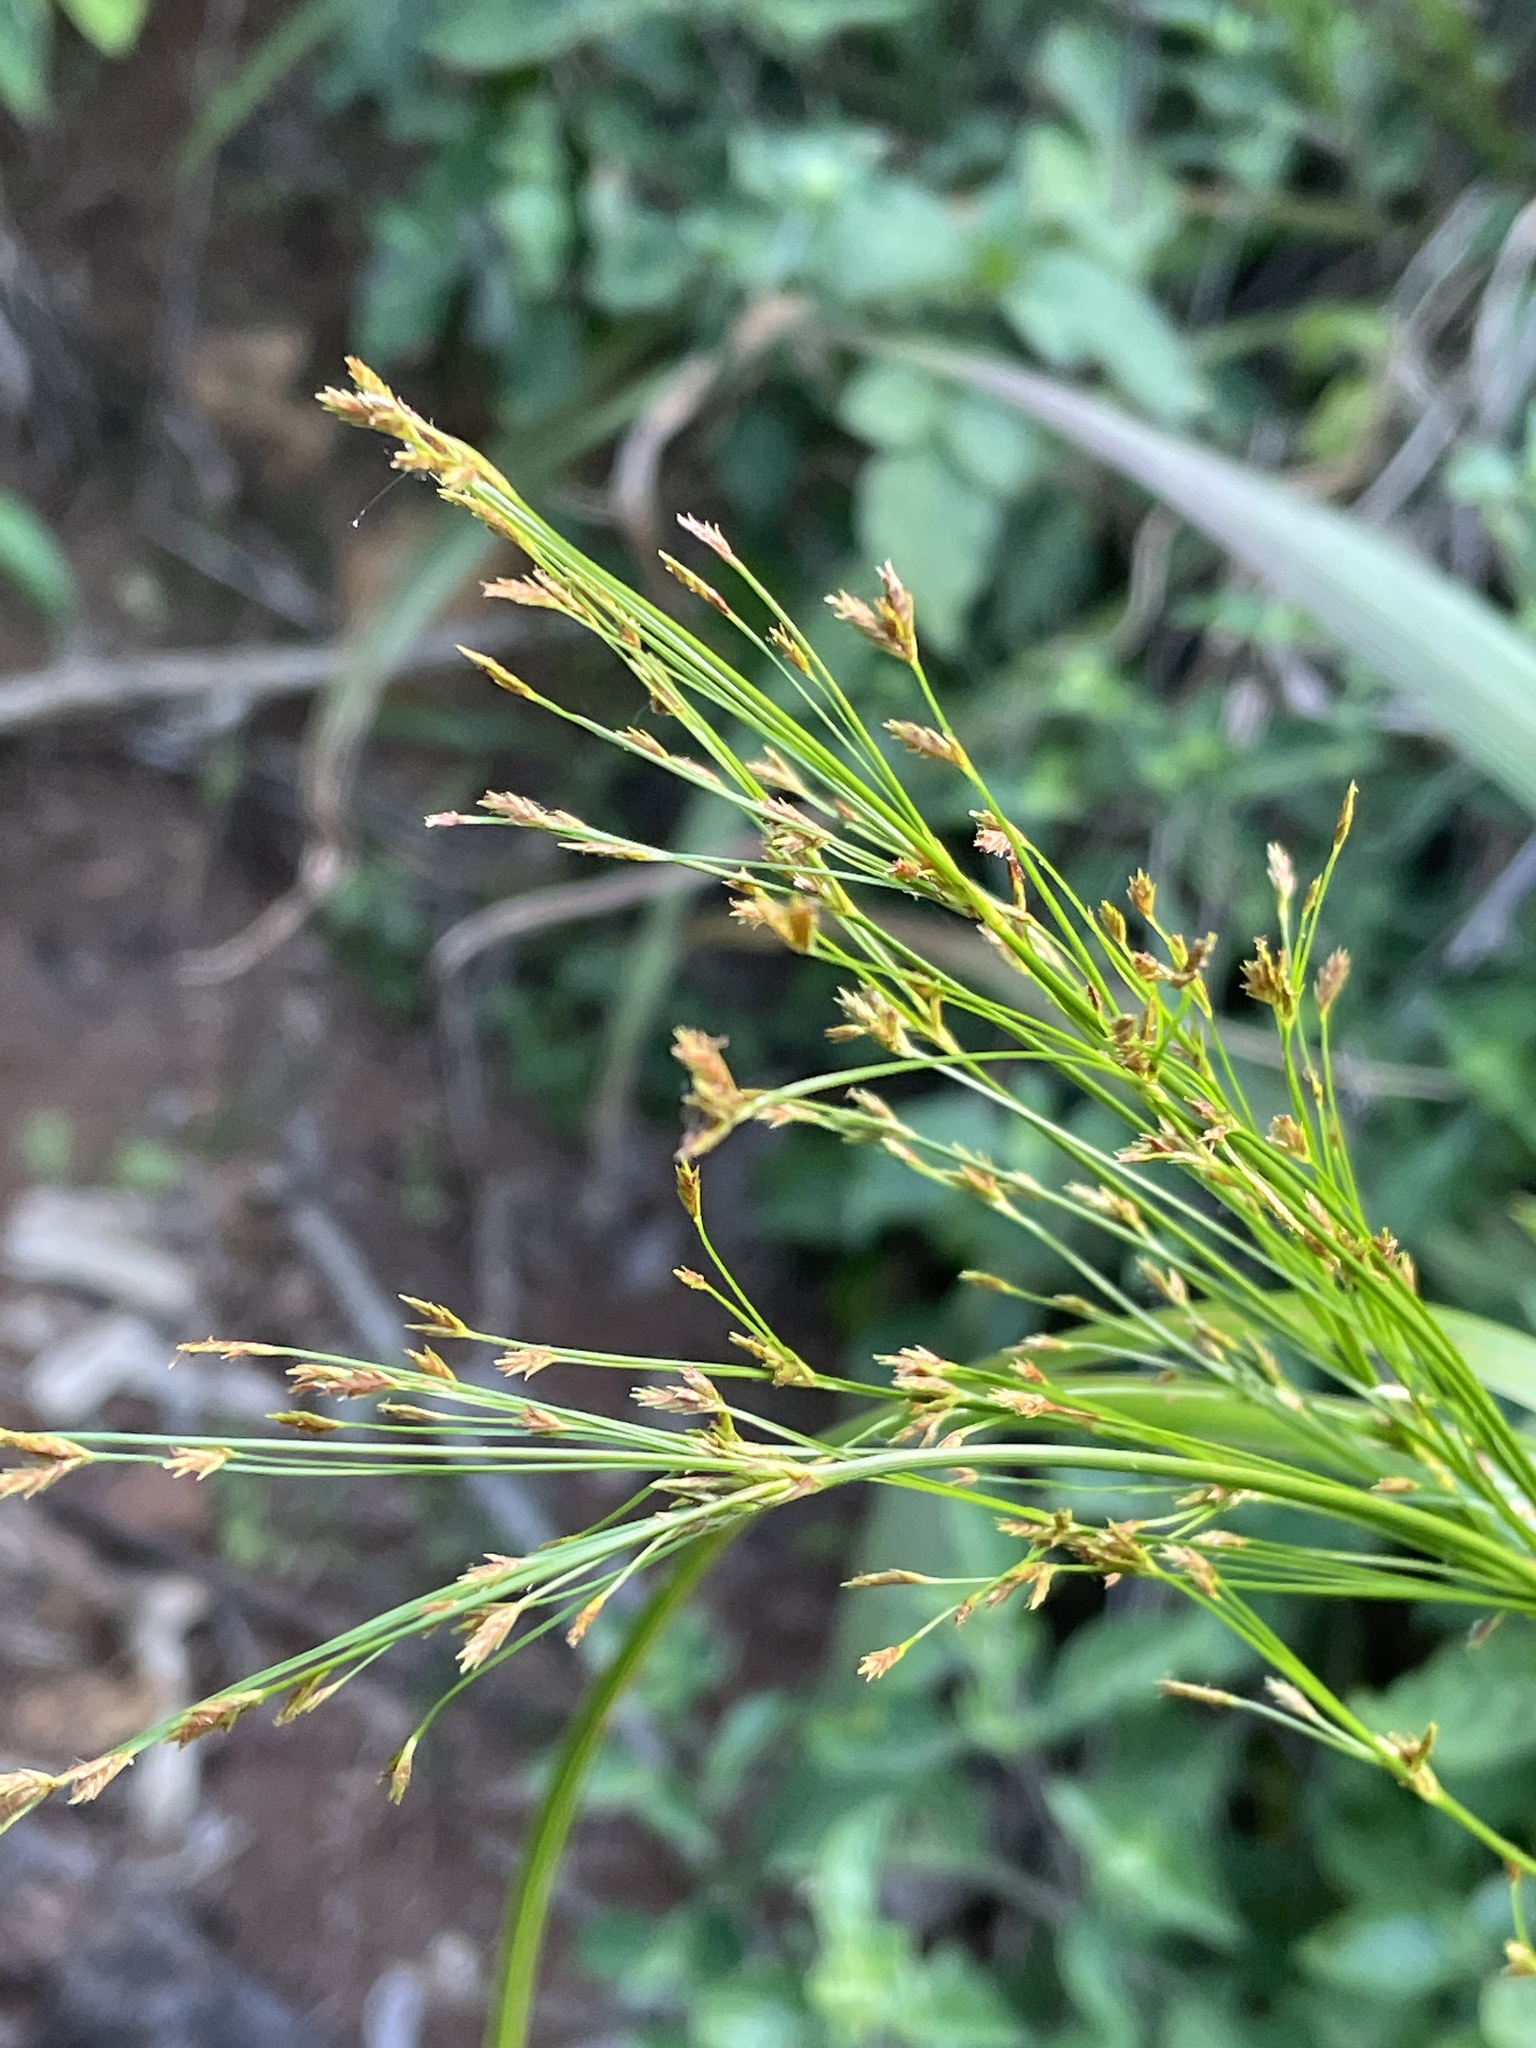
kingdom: Plantae
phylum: Tracheophyta
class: Liliopsida
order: Poales
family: Cyperaceae
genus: Cyperus
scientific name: Cyperus leptocladus
